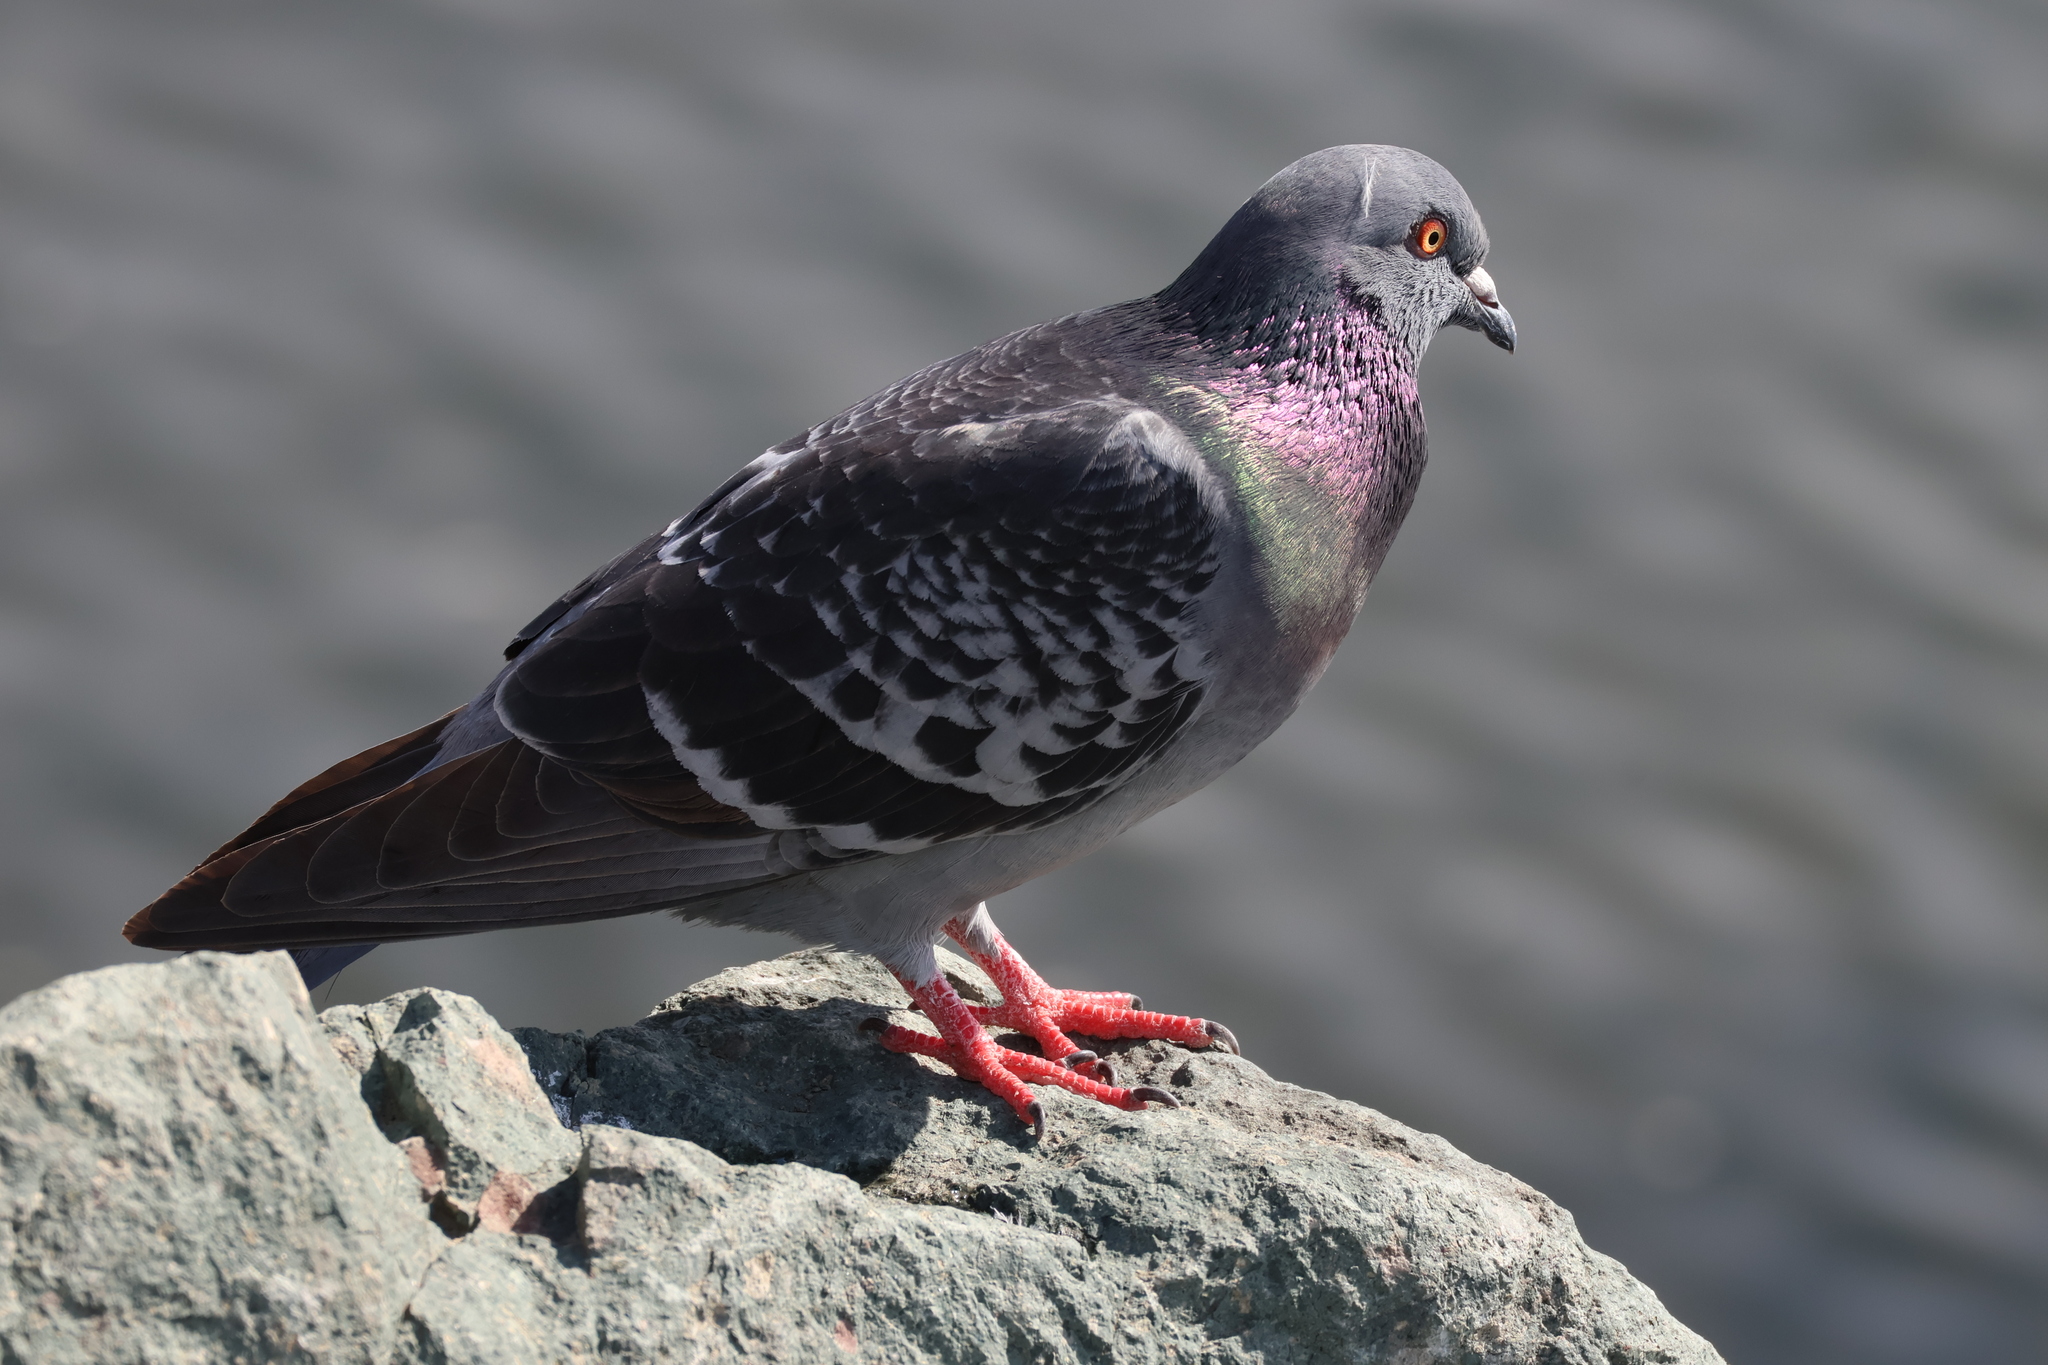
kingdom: Animalia
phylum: Chordata
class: Aves
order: Columbiformes
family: Columbidae
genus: Columba
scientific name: Columba livia
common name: Rock pigeon
